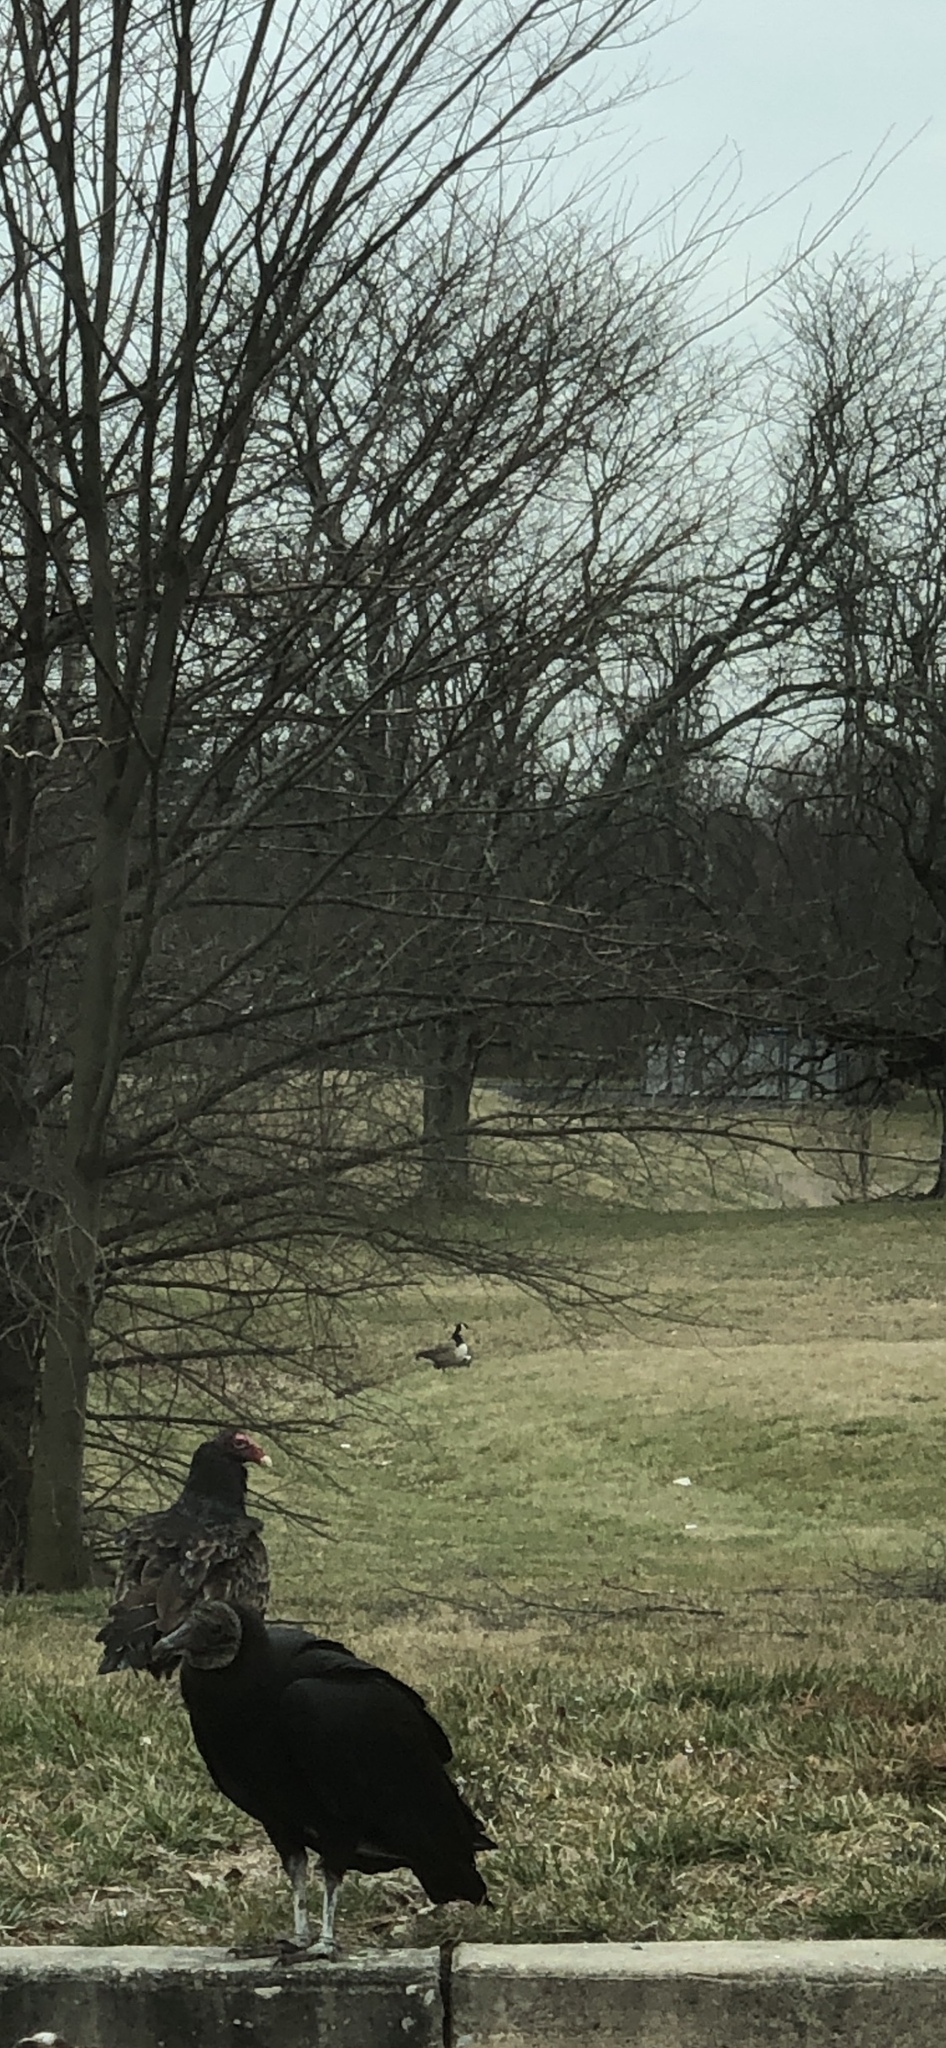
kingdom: Animalia
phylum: Chordata
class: Aves
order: Accipitriformes
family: Cathartidae
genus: Coragyps
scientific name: Coragyps atratus
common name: Black vulture
